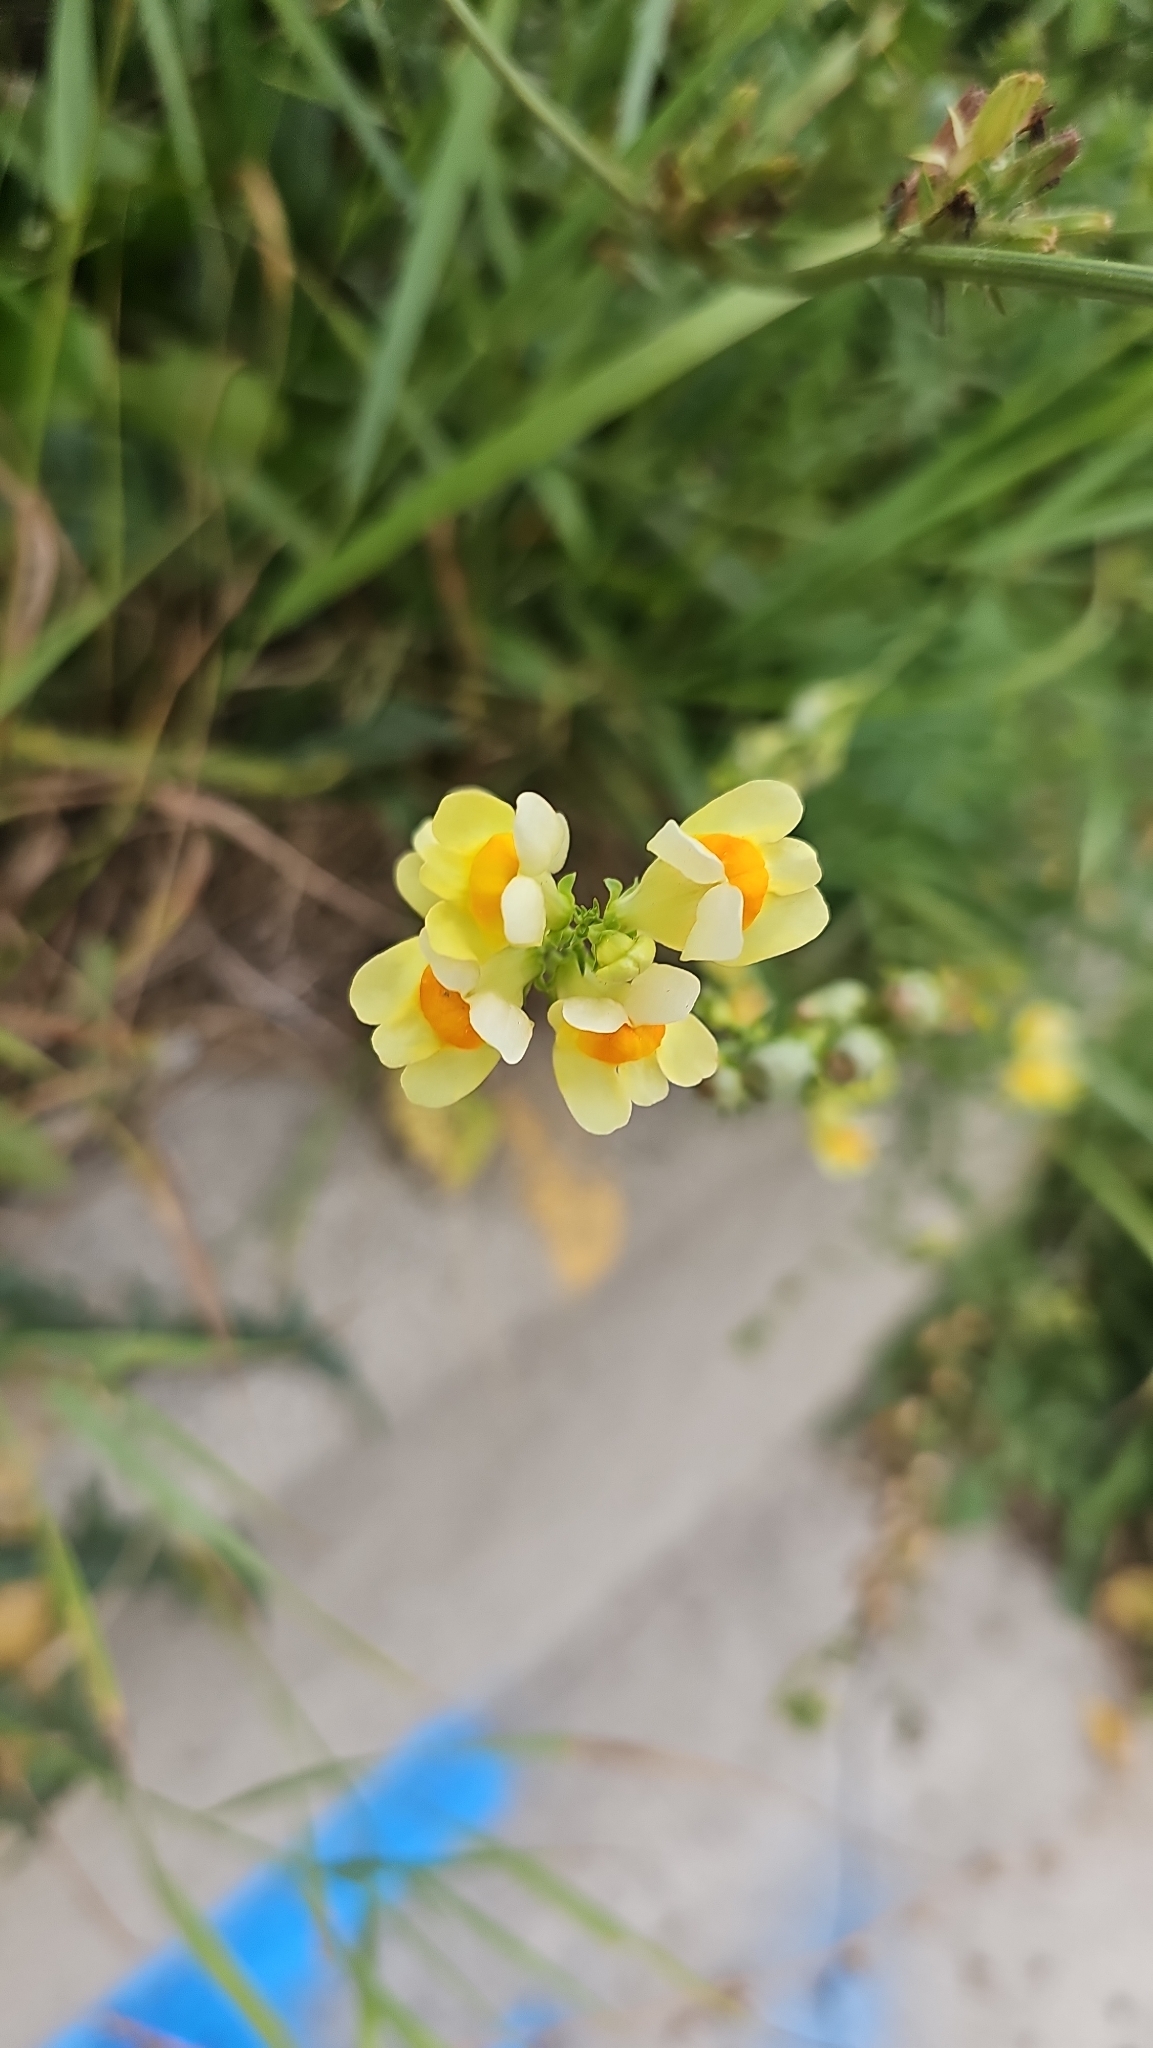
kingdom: Plantae
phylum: Tracheophyta
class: Magnoliopsida
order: Lamiales
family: Plantaginaceae
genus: Linaria
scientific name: Linaria vulgaris
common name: Butter and eggs
